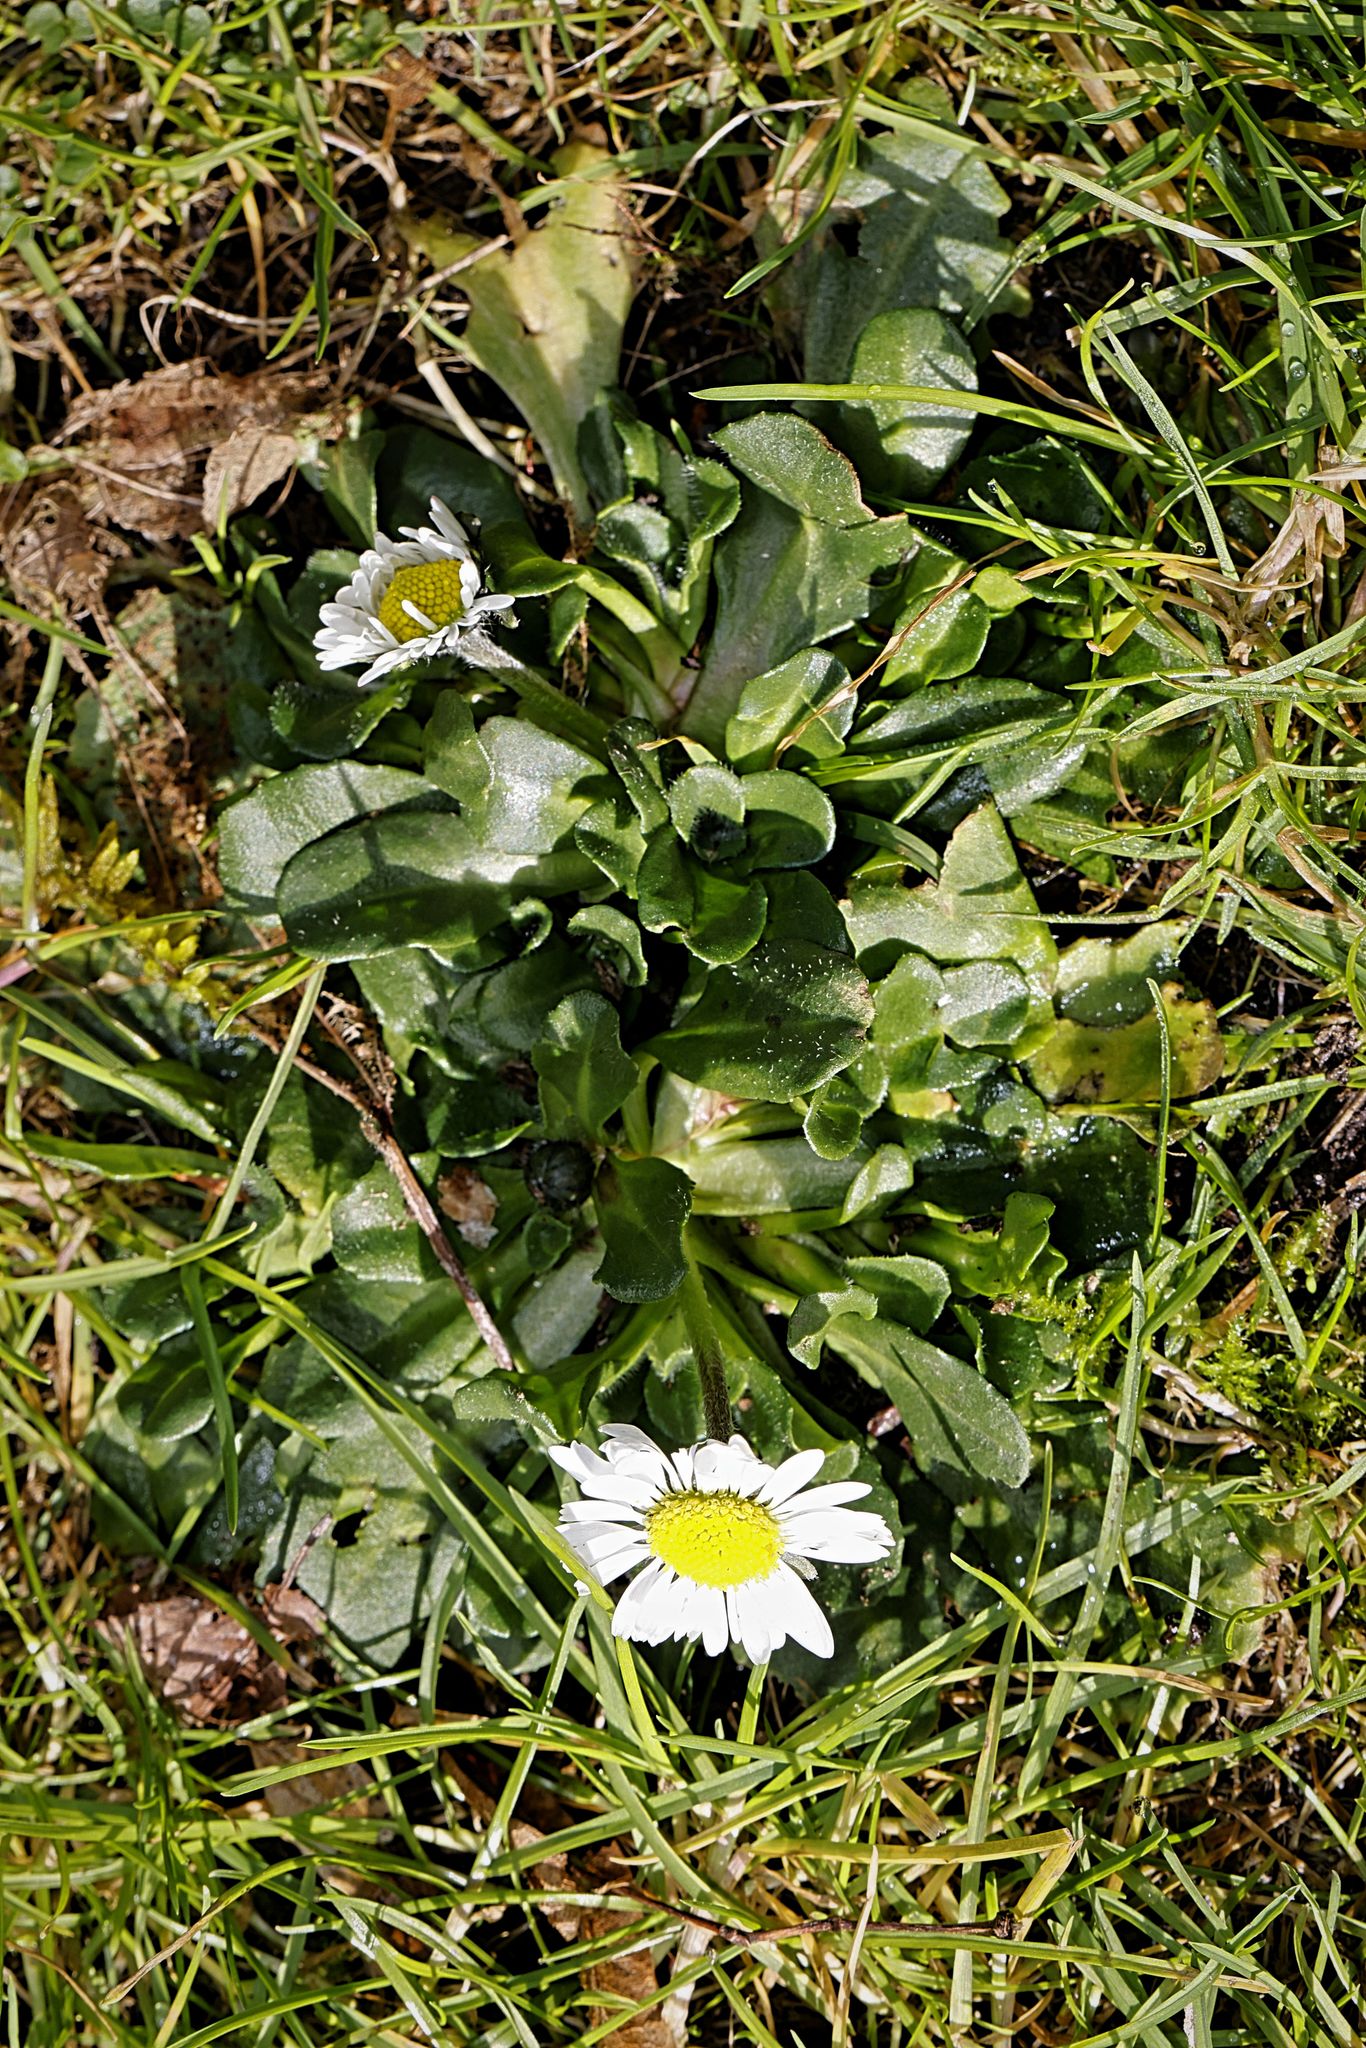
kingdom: Plantae
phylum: Tracheophyta
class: Magnoliopsida
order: Asterales
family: Asteraceae
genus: Bellis
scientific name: Bellis perennis
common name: Lawndaisy
